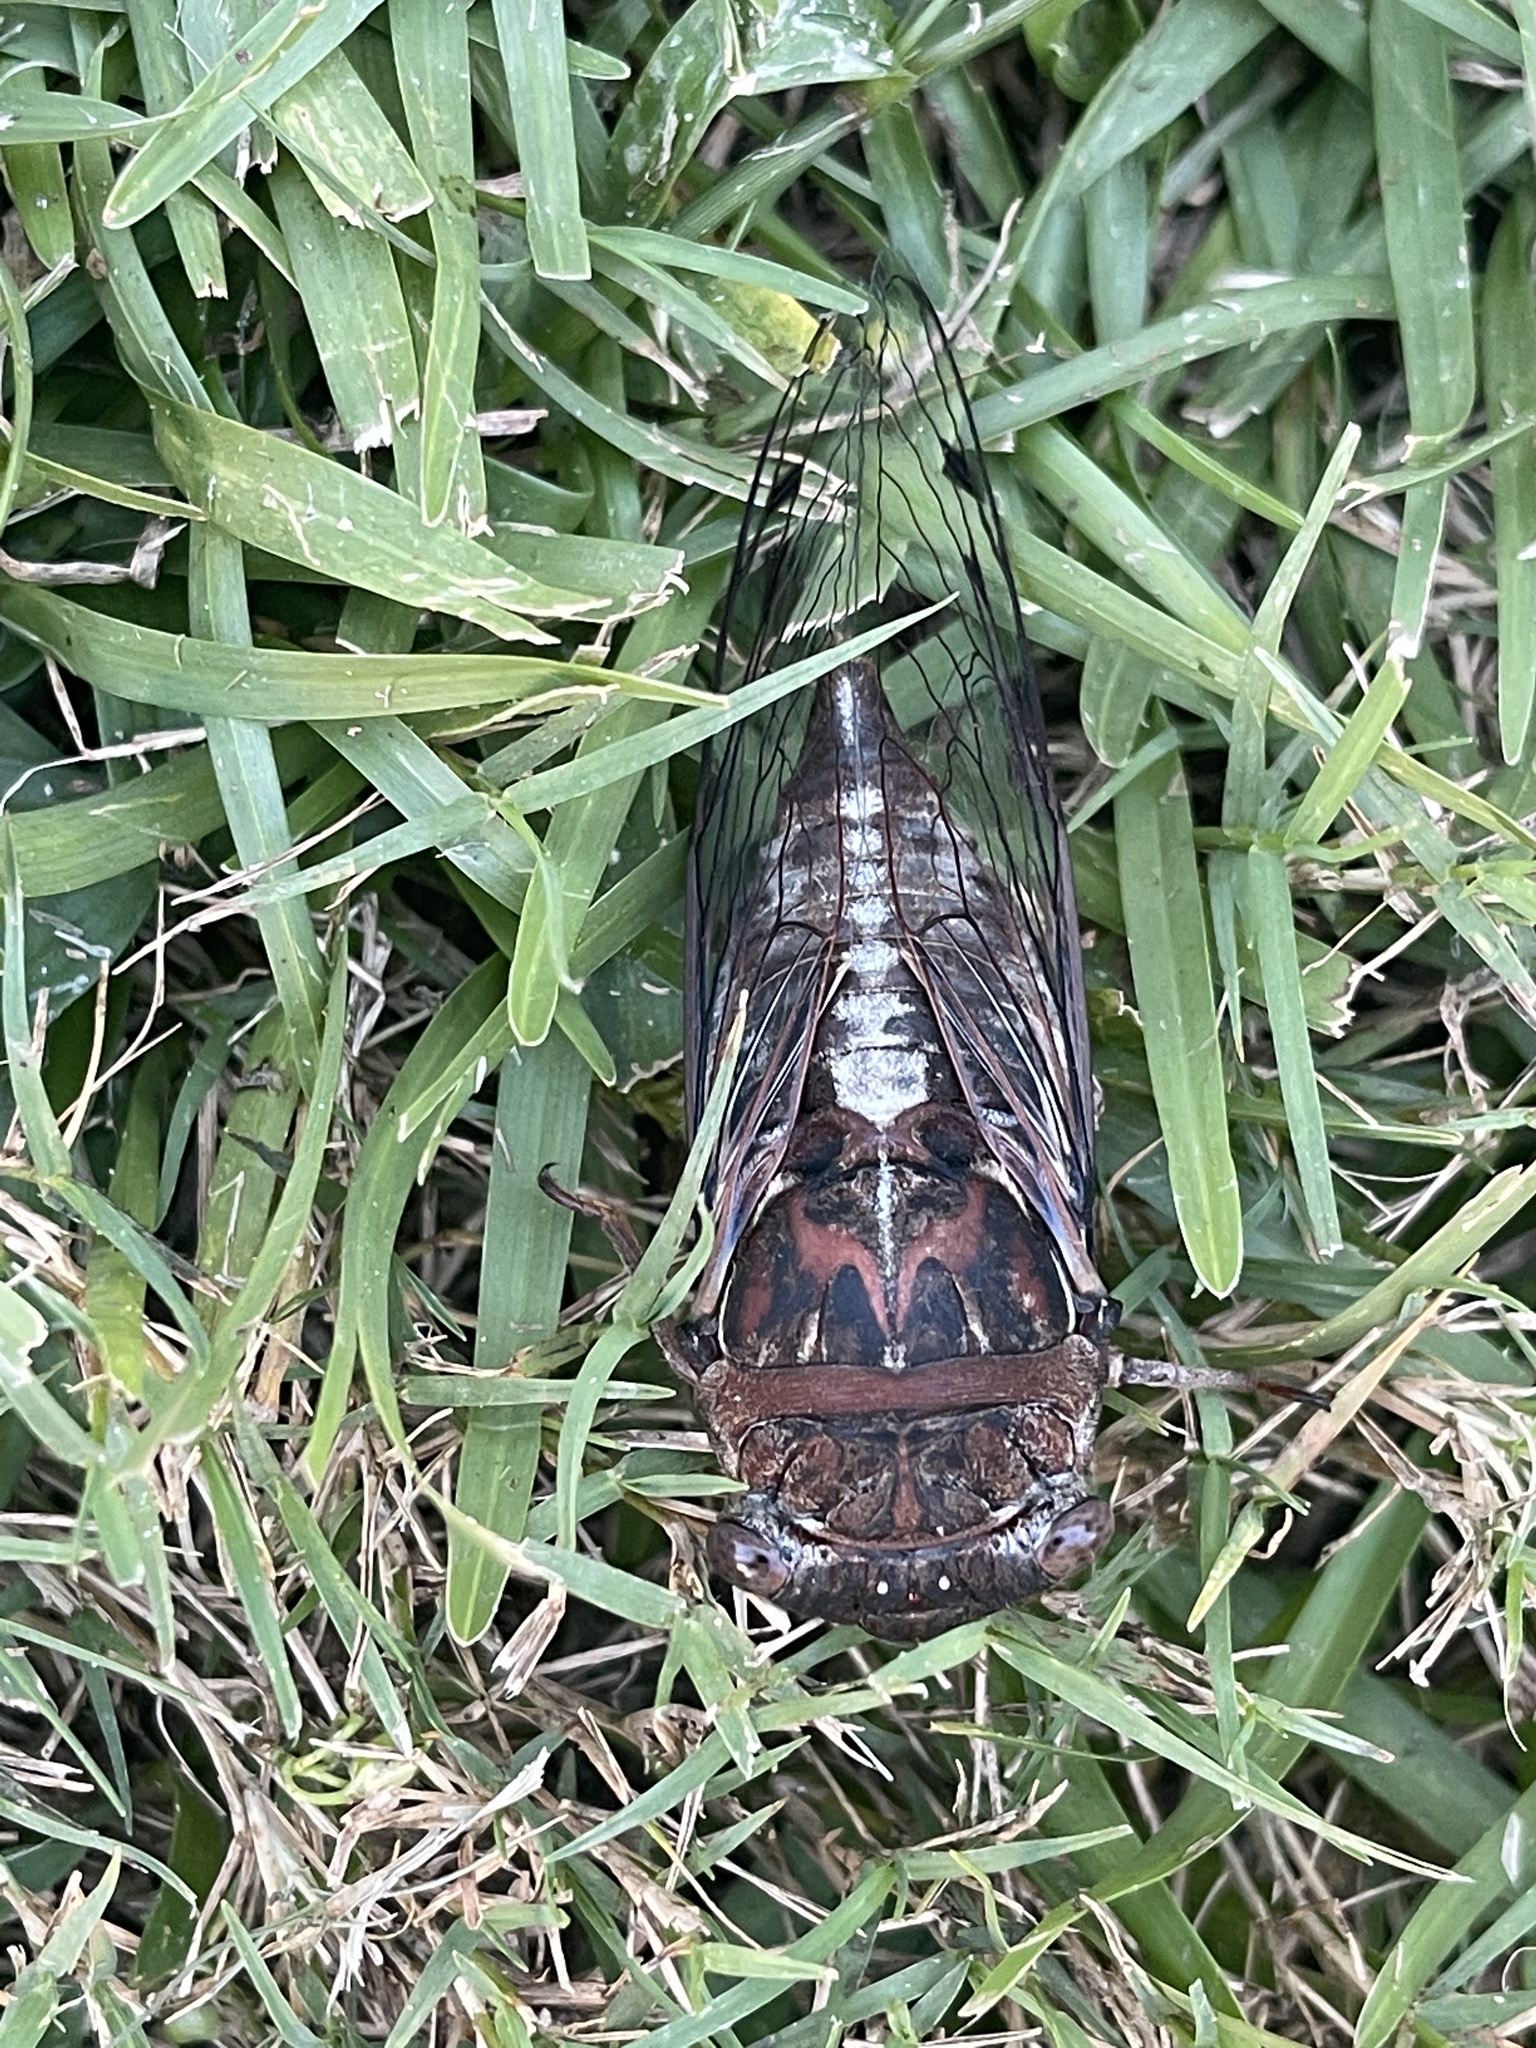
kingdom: Animalia
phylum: Arthropoda
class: Insecta
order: Hemiptera
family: Cicadidae
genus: Megatibicen
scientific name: Megatibicen figuratus
